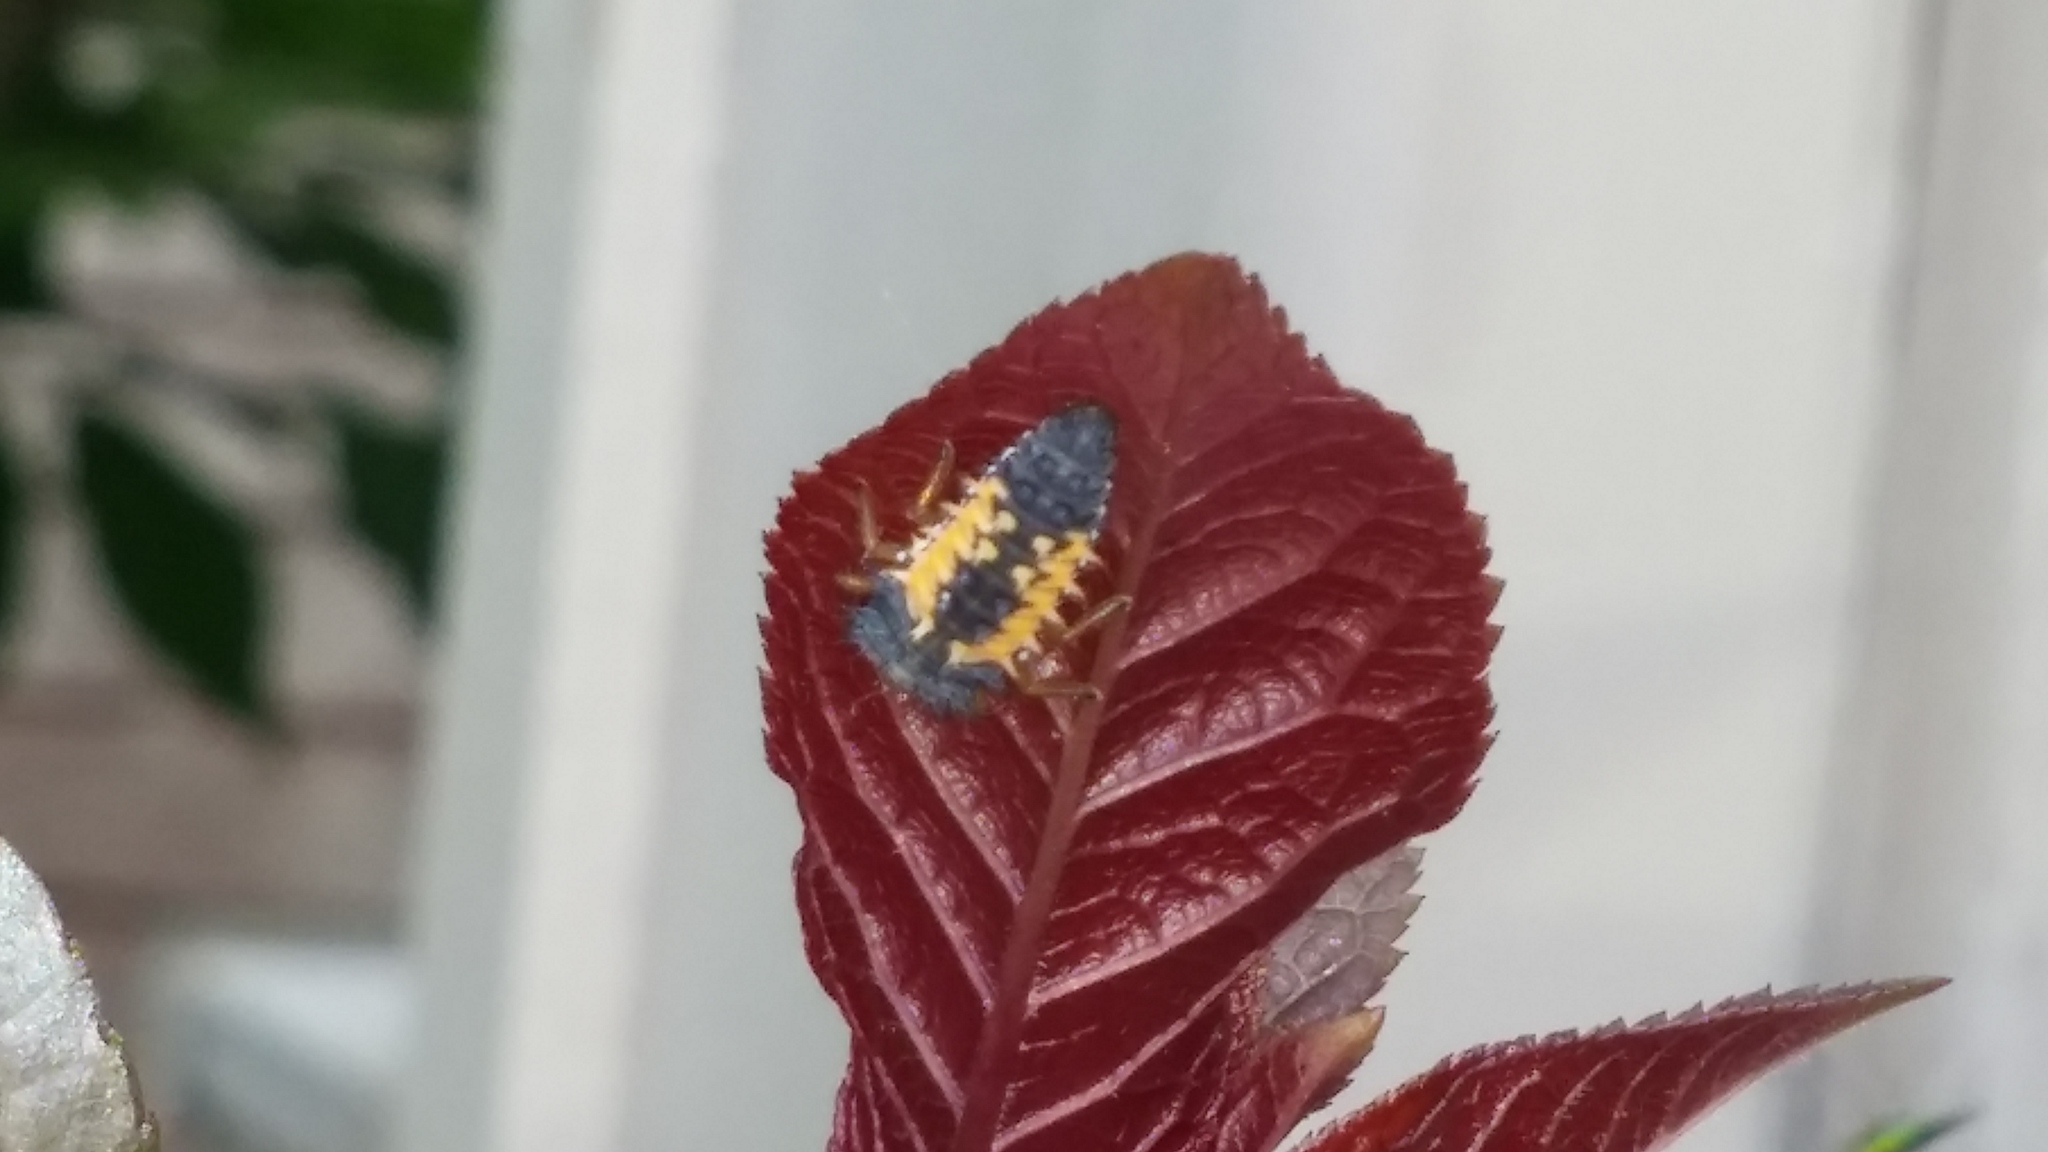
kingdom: Animalia
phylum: Arthropoda
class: Insecta
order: Coleoptera
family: Coccinellidae
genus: Harmonia
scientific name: Harmonia axyridis
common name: Harlequin ladybird
